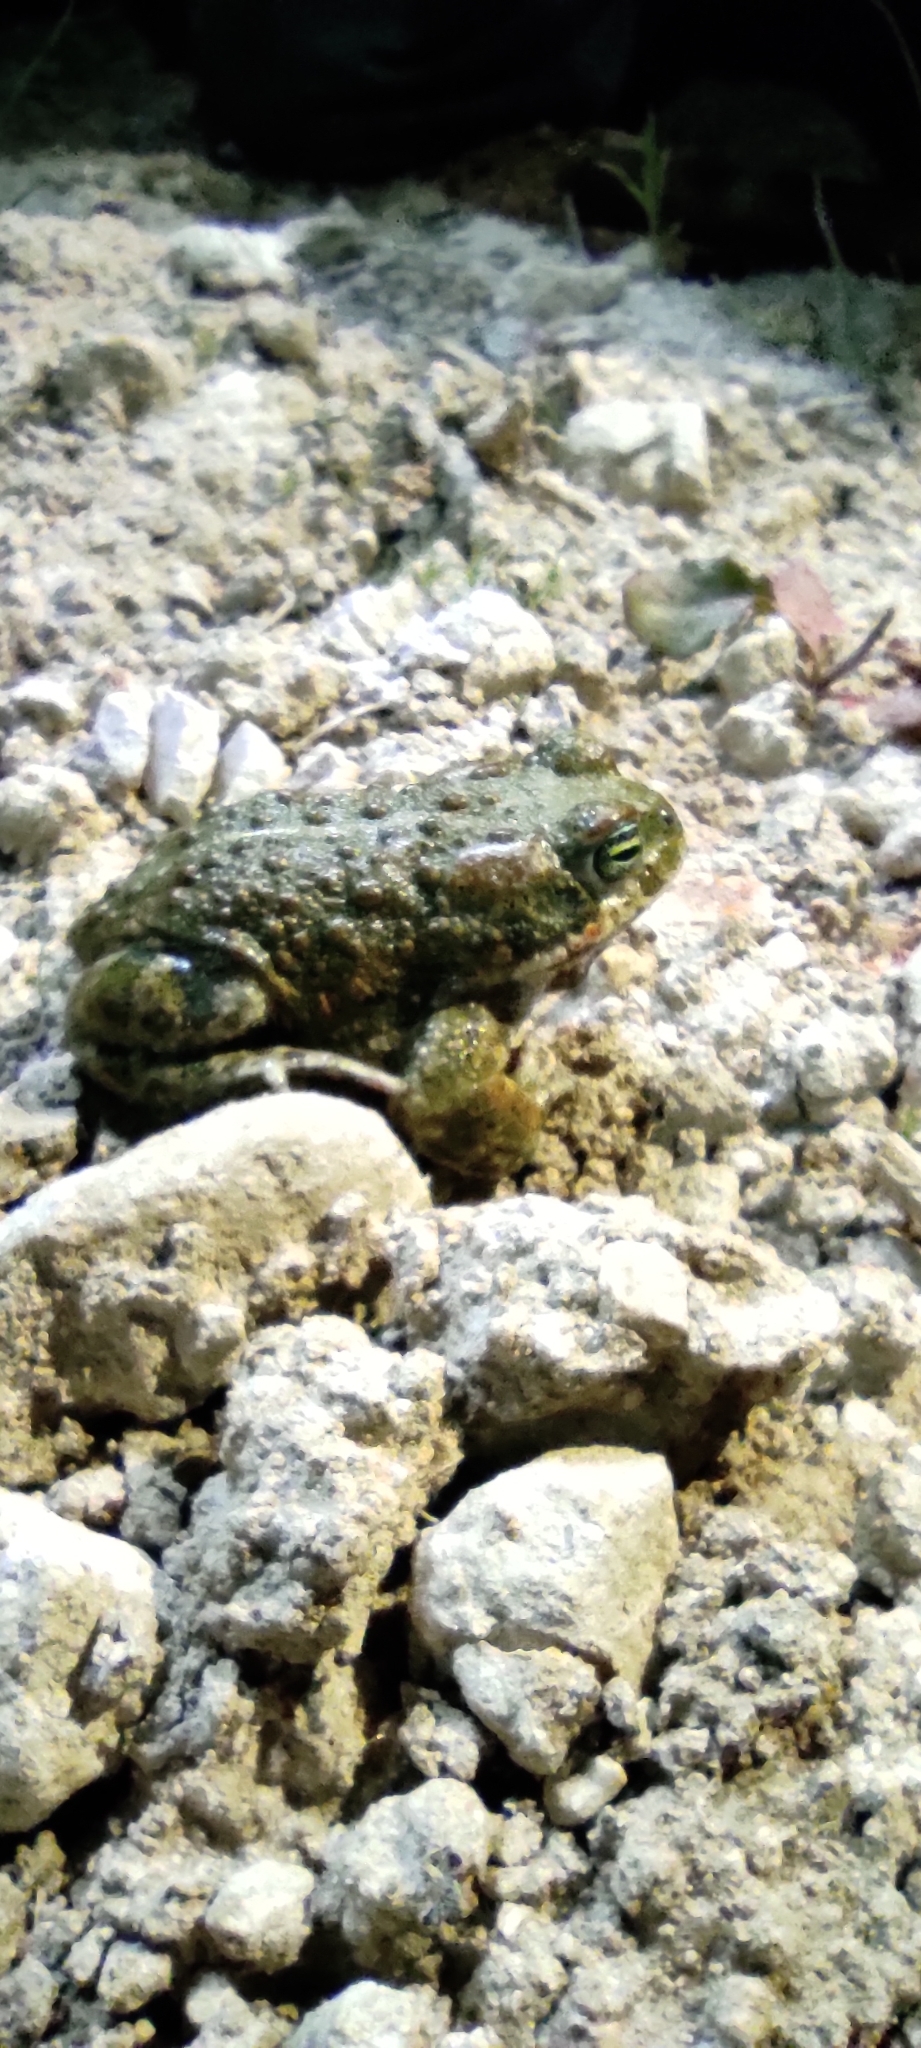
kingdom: Animalia
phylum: Chordata
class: Amphibia
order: Anura
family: Bufonidae
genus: Epidalea
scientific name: Epidalea calamita
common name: Natterjack toad
